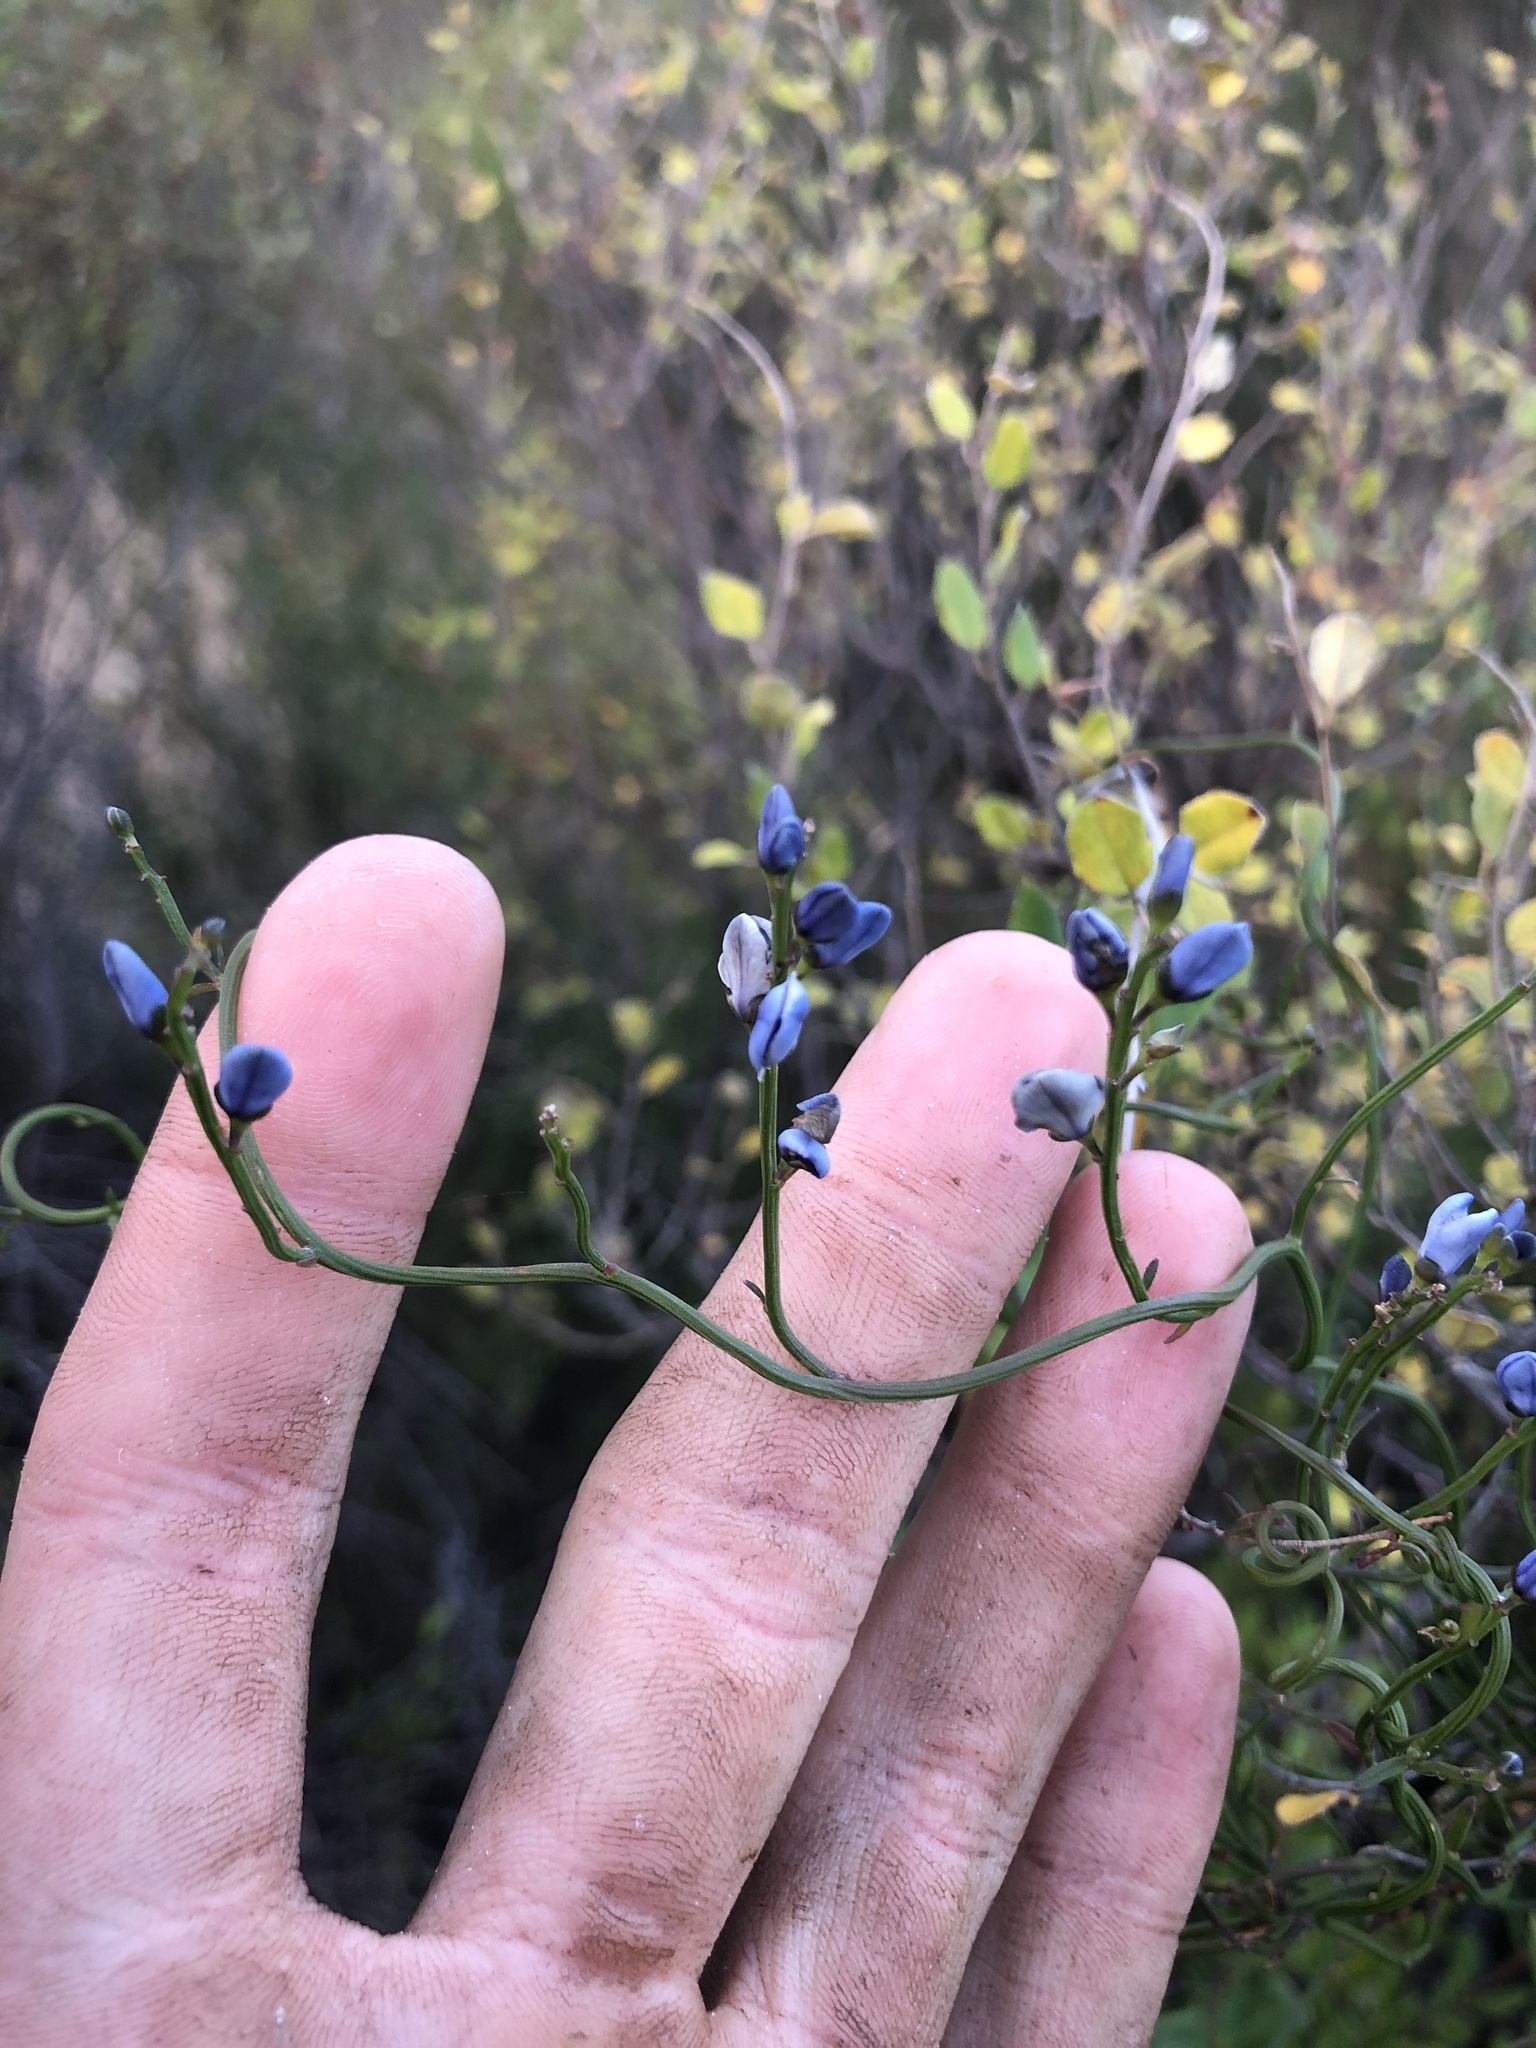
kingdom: Plantae
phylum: Tracheophyta
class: Magnoliopsida
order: Fabales
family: Polygalaceae
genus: Comesperma
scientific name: Comesperma volubile
